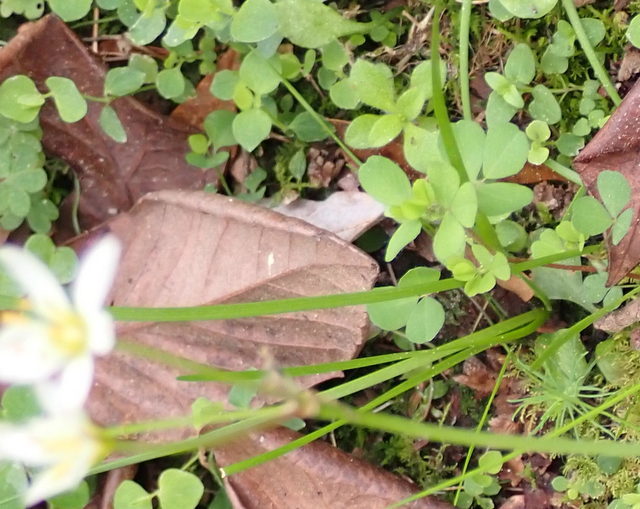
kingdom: Plantae
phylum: Tracheophyta
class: Liliopsida
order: Asparagales
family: Amaryllidaceae
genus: Nothoscordum
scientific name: Nothoscordum bivalve
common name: Crow-poison
